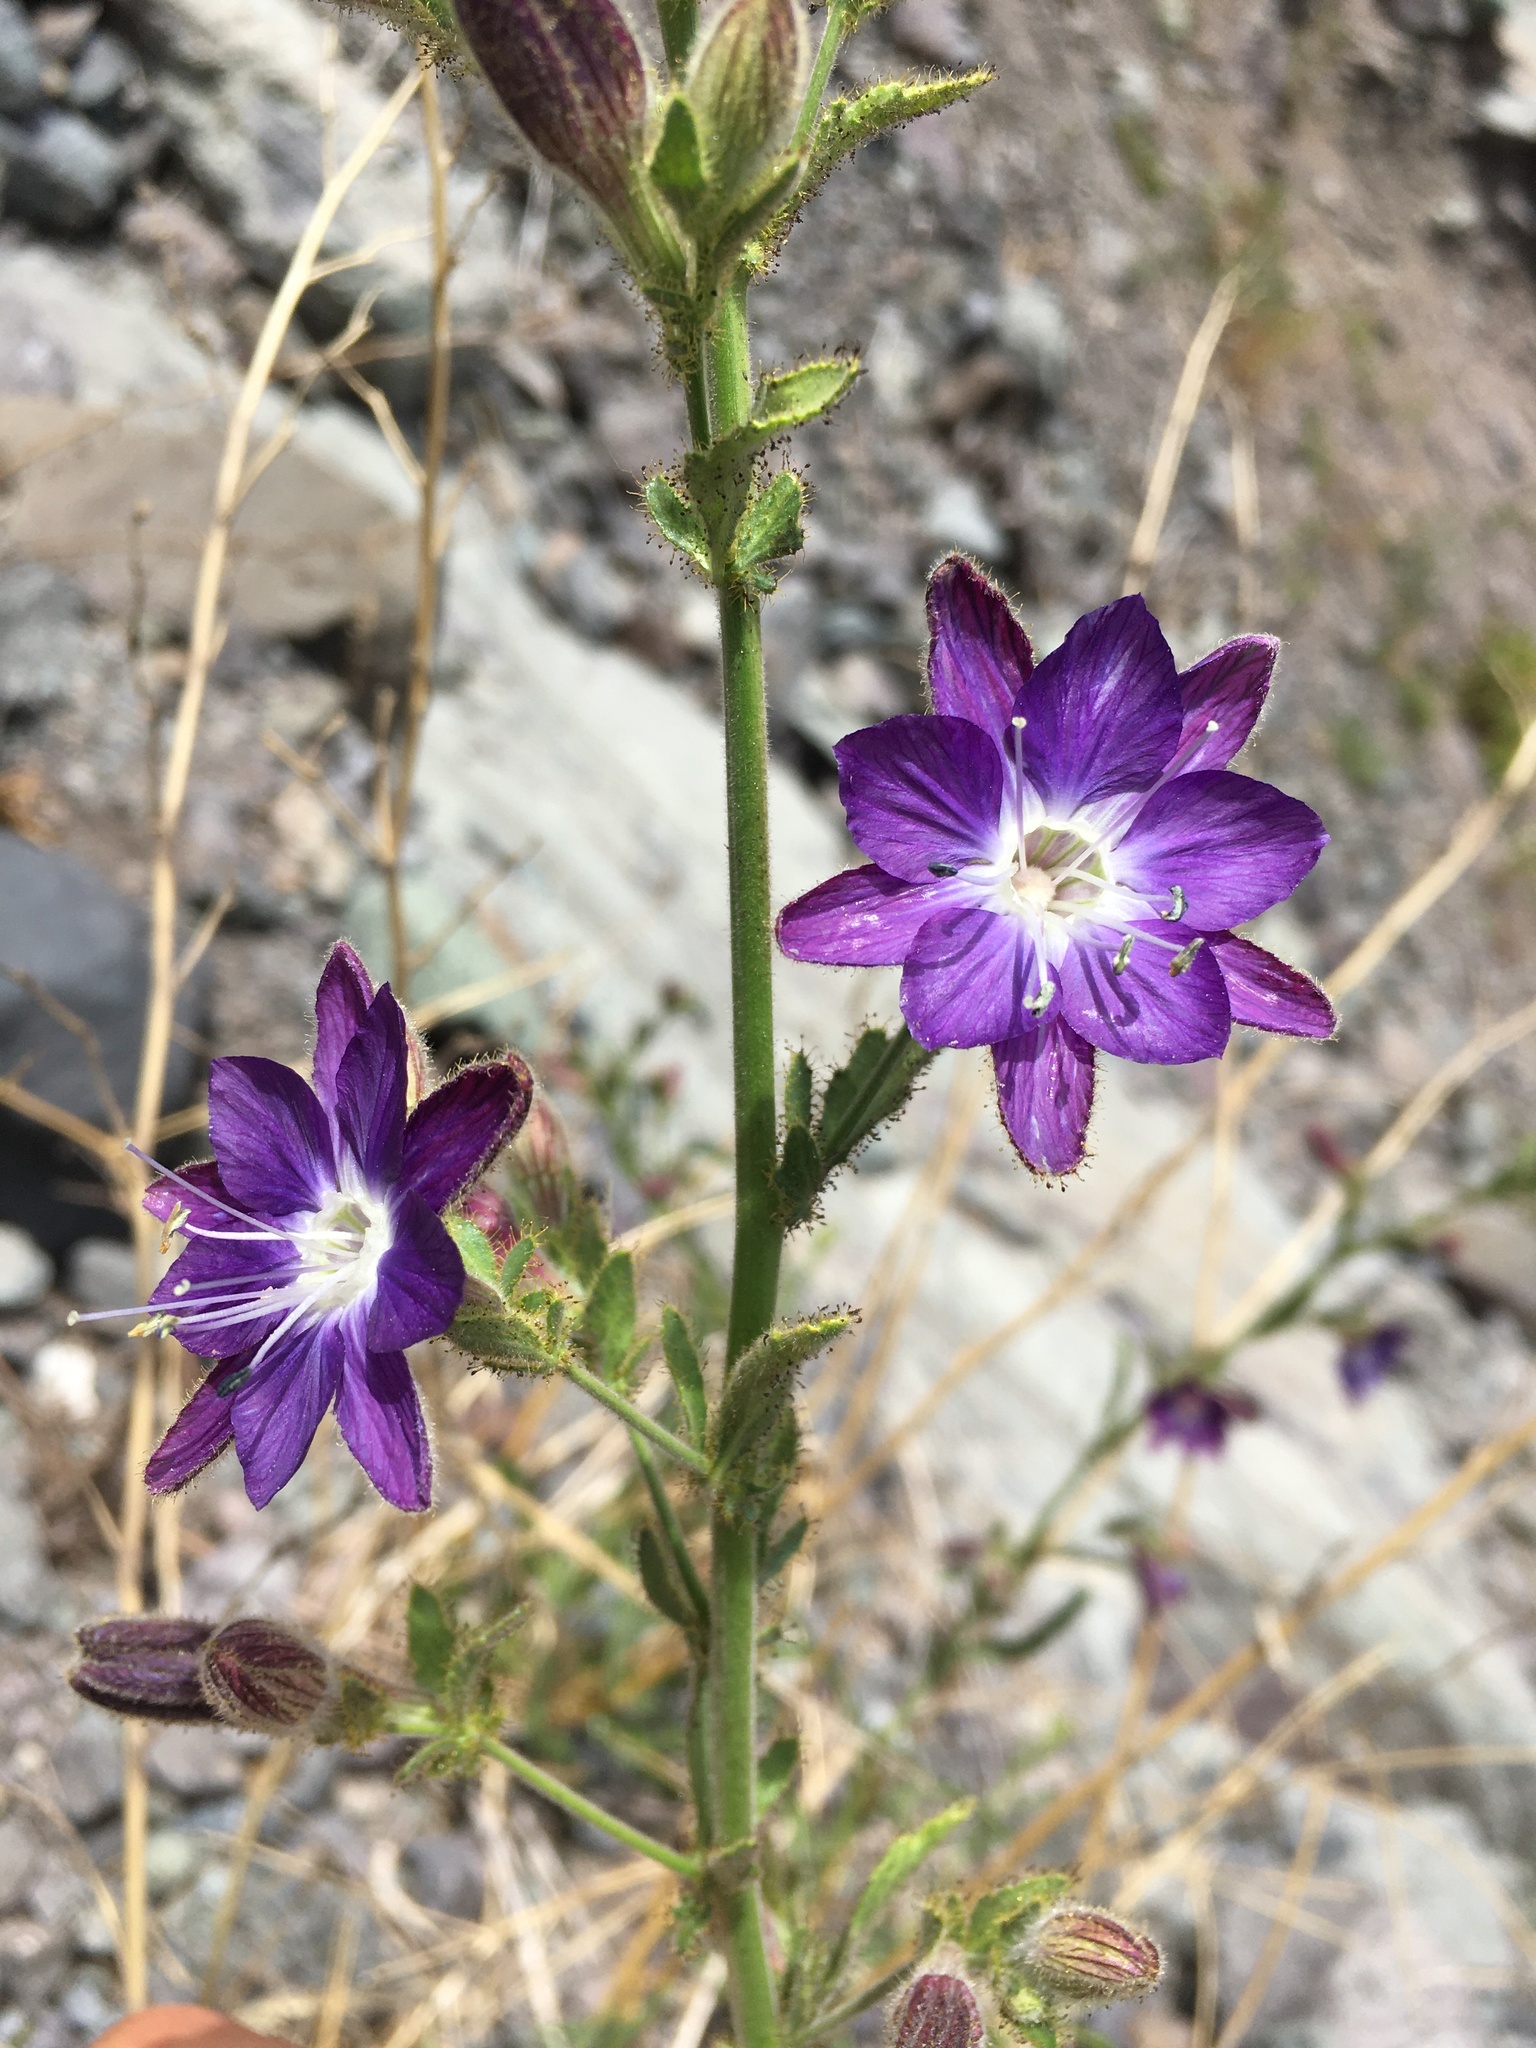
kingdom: Plantae
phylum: Tracheophyta
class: Magnoliopsida
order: Malpighiales
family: Malesherbiaceae
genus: Malesherbia
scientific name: Malesherbia linearifolia
